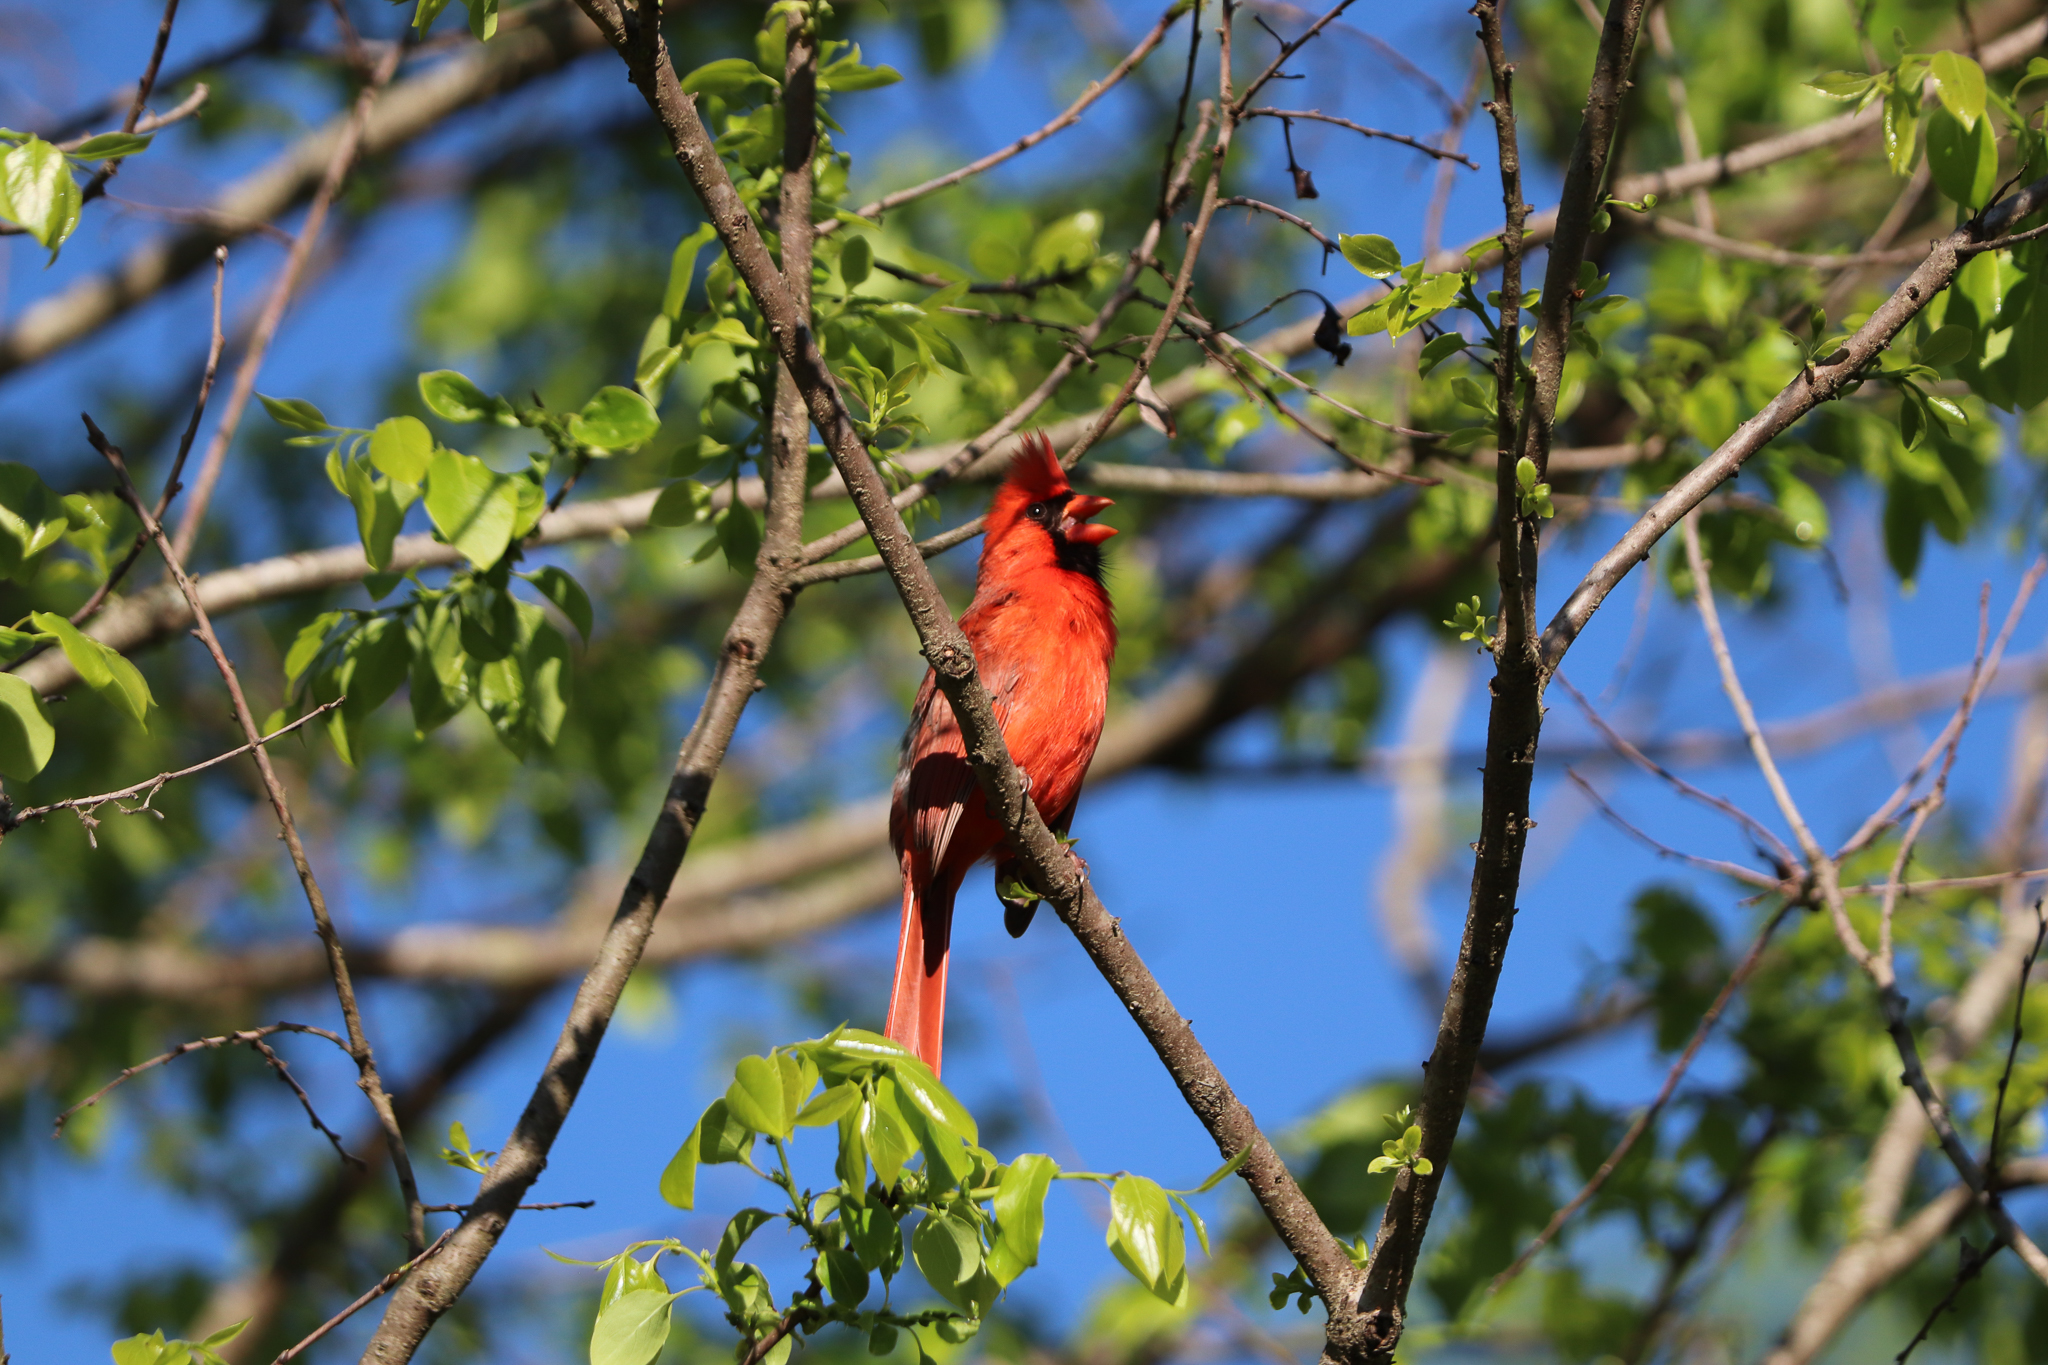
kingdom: Animalia
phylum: Chordata
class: Aves
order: Passeriformes
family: Cardinalidae
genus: Cardinalis
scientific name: Cardinalis cardinalis
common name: Northern cardinal
